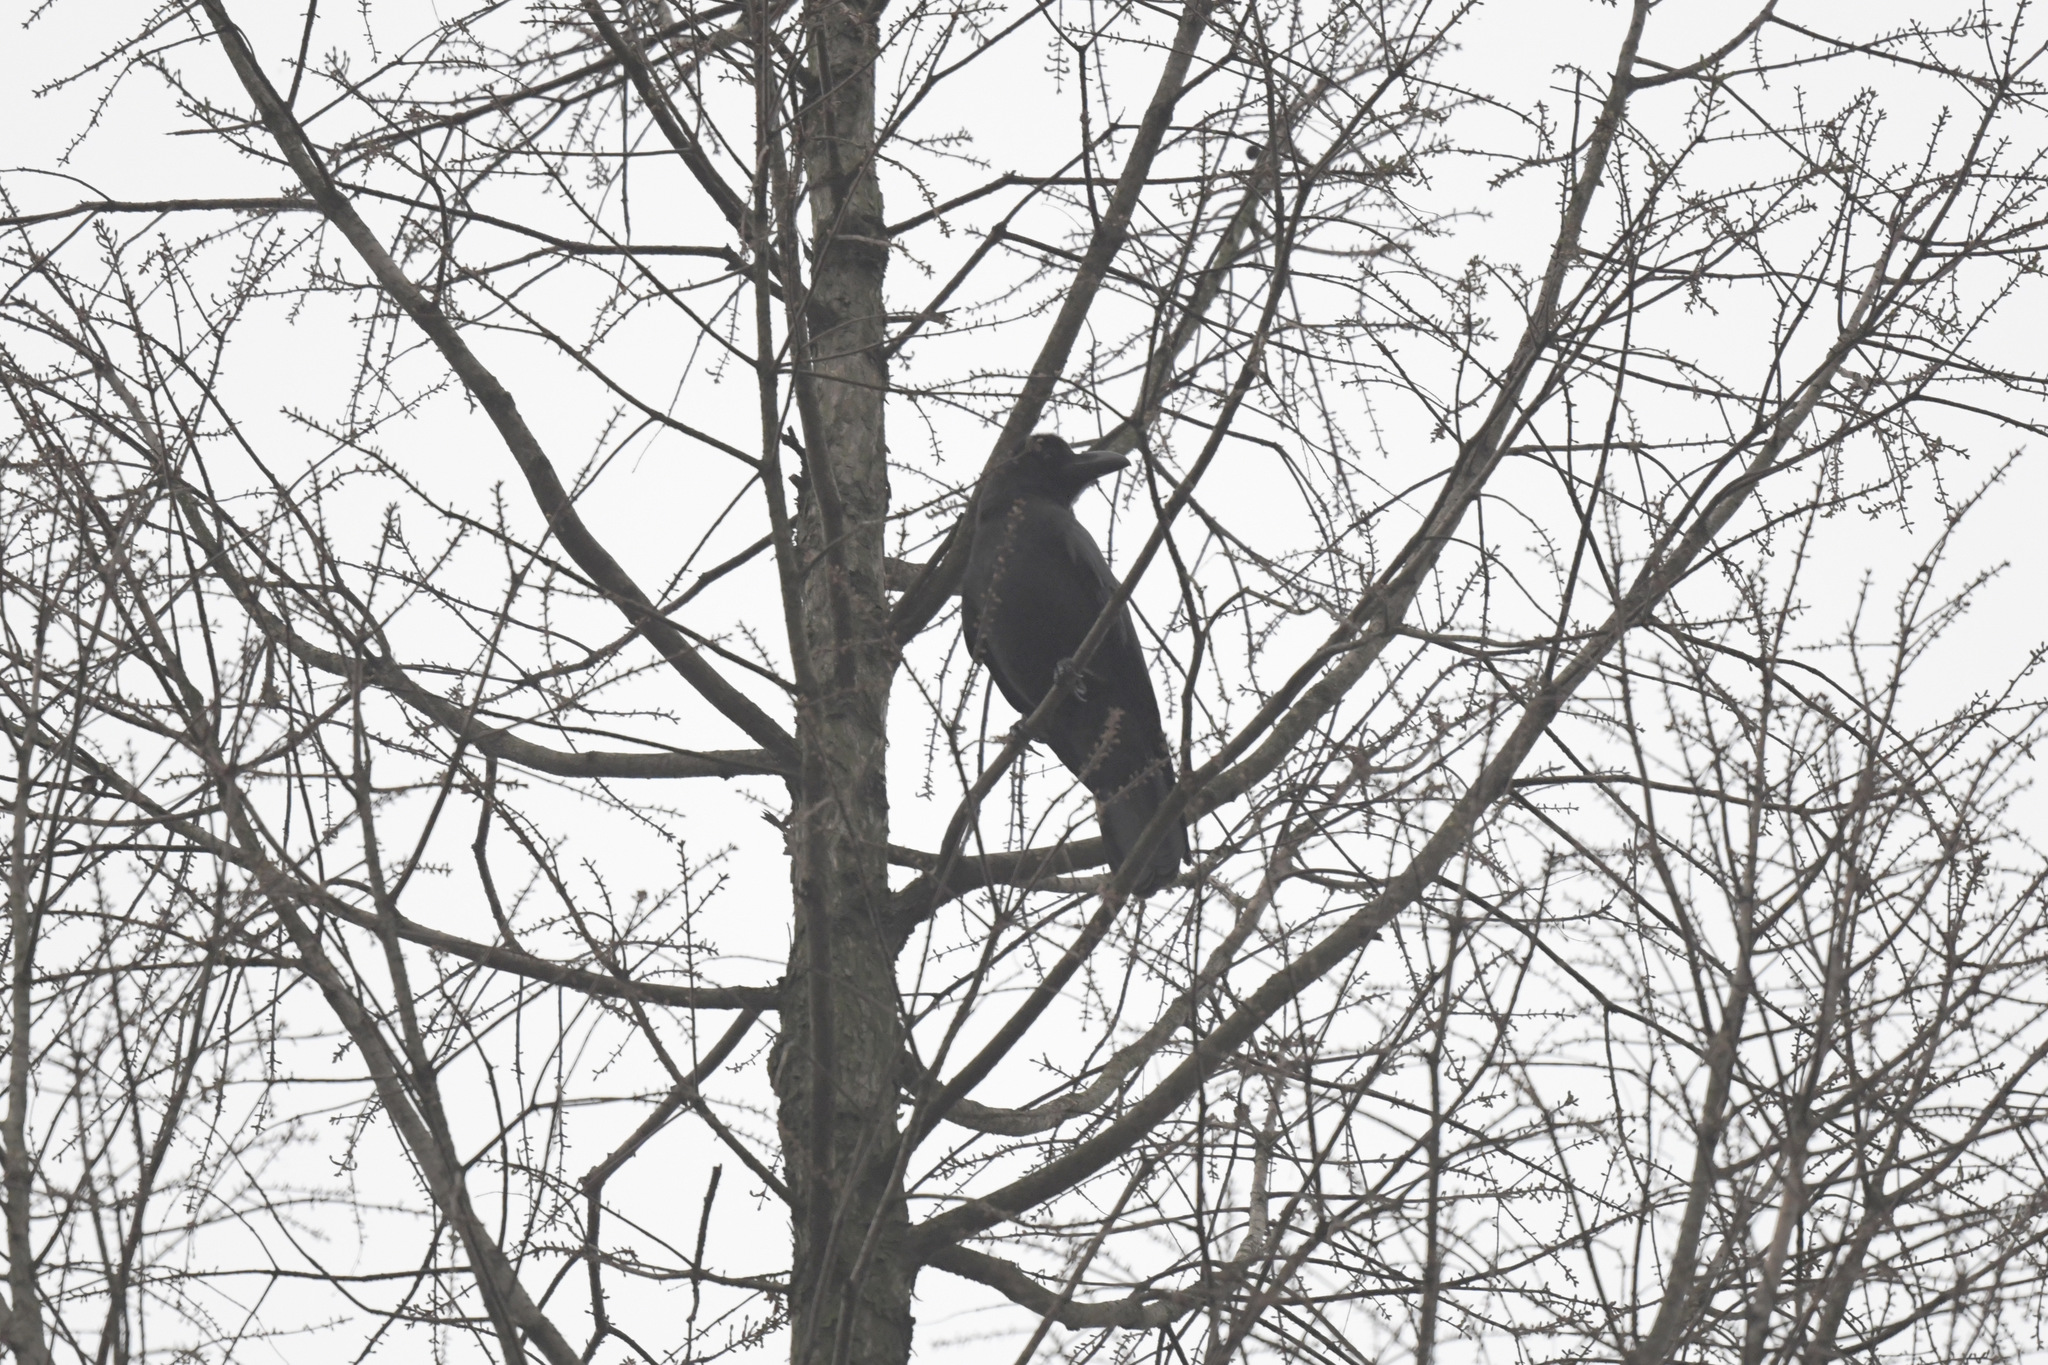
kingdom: Animalia
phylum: Chordata
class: Aves
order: Passeriformes
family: Corvidae
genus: Corvus
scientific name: Corvus macrorhynchos
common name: Large-billed crow
